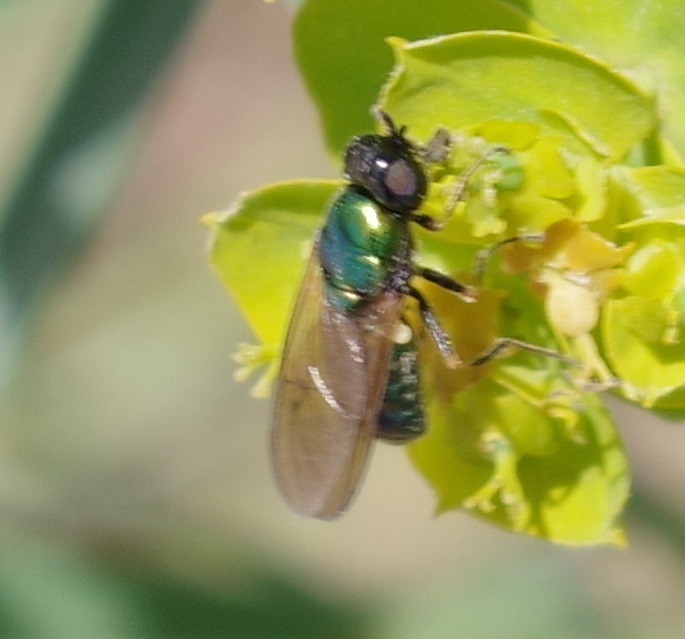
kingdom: Animalia
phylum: Arthropoda
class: Insecta
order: Diptera
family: Stratiomyidae
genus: Chloromyia
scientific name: Chloromyia formosa
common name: Soldier fly
